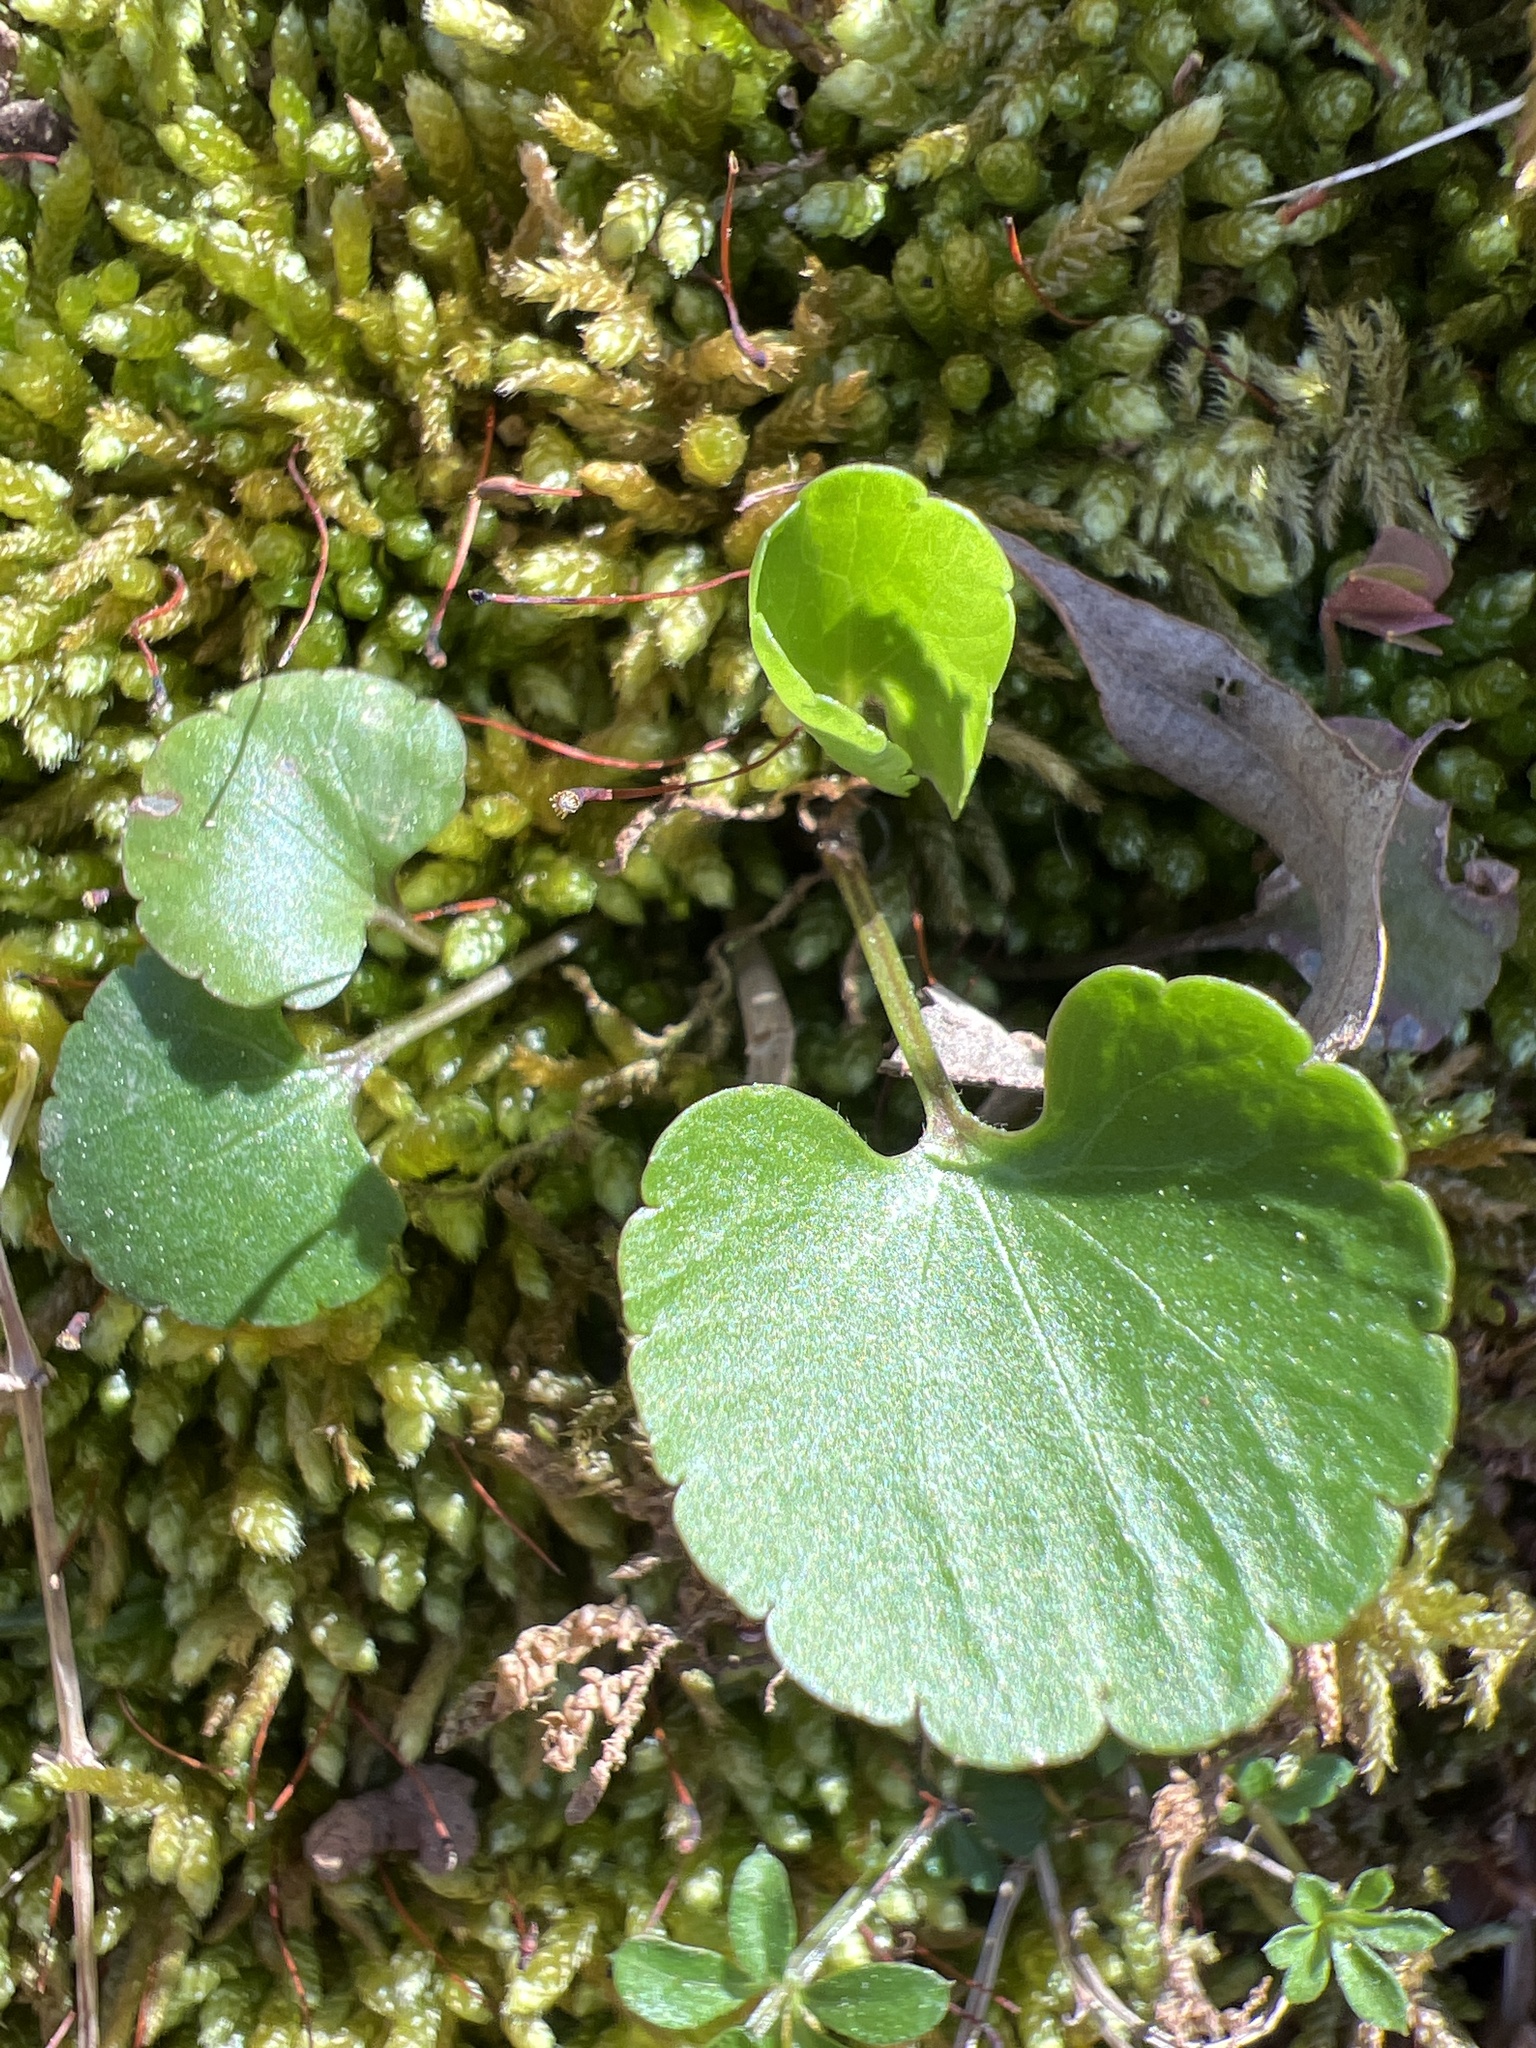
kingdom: Plantae
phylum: Tracheophyta
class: Magnoliopsida
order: Ranunculales
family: Ranunculaceae
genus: Ranunculus
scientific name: Ranunculus abortivus
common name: Early wood buttercup
